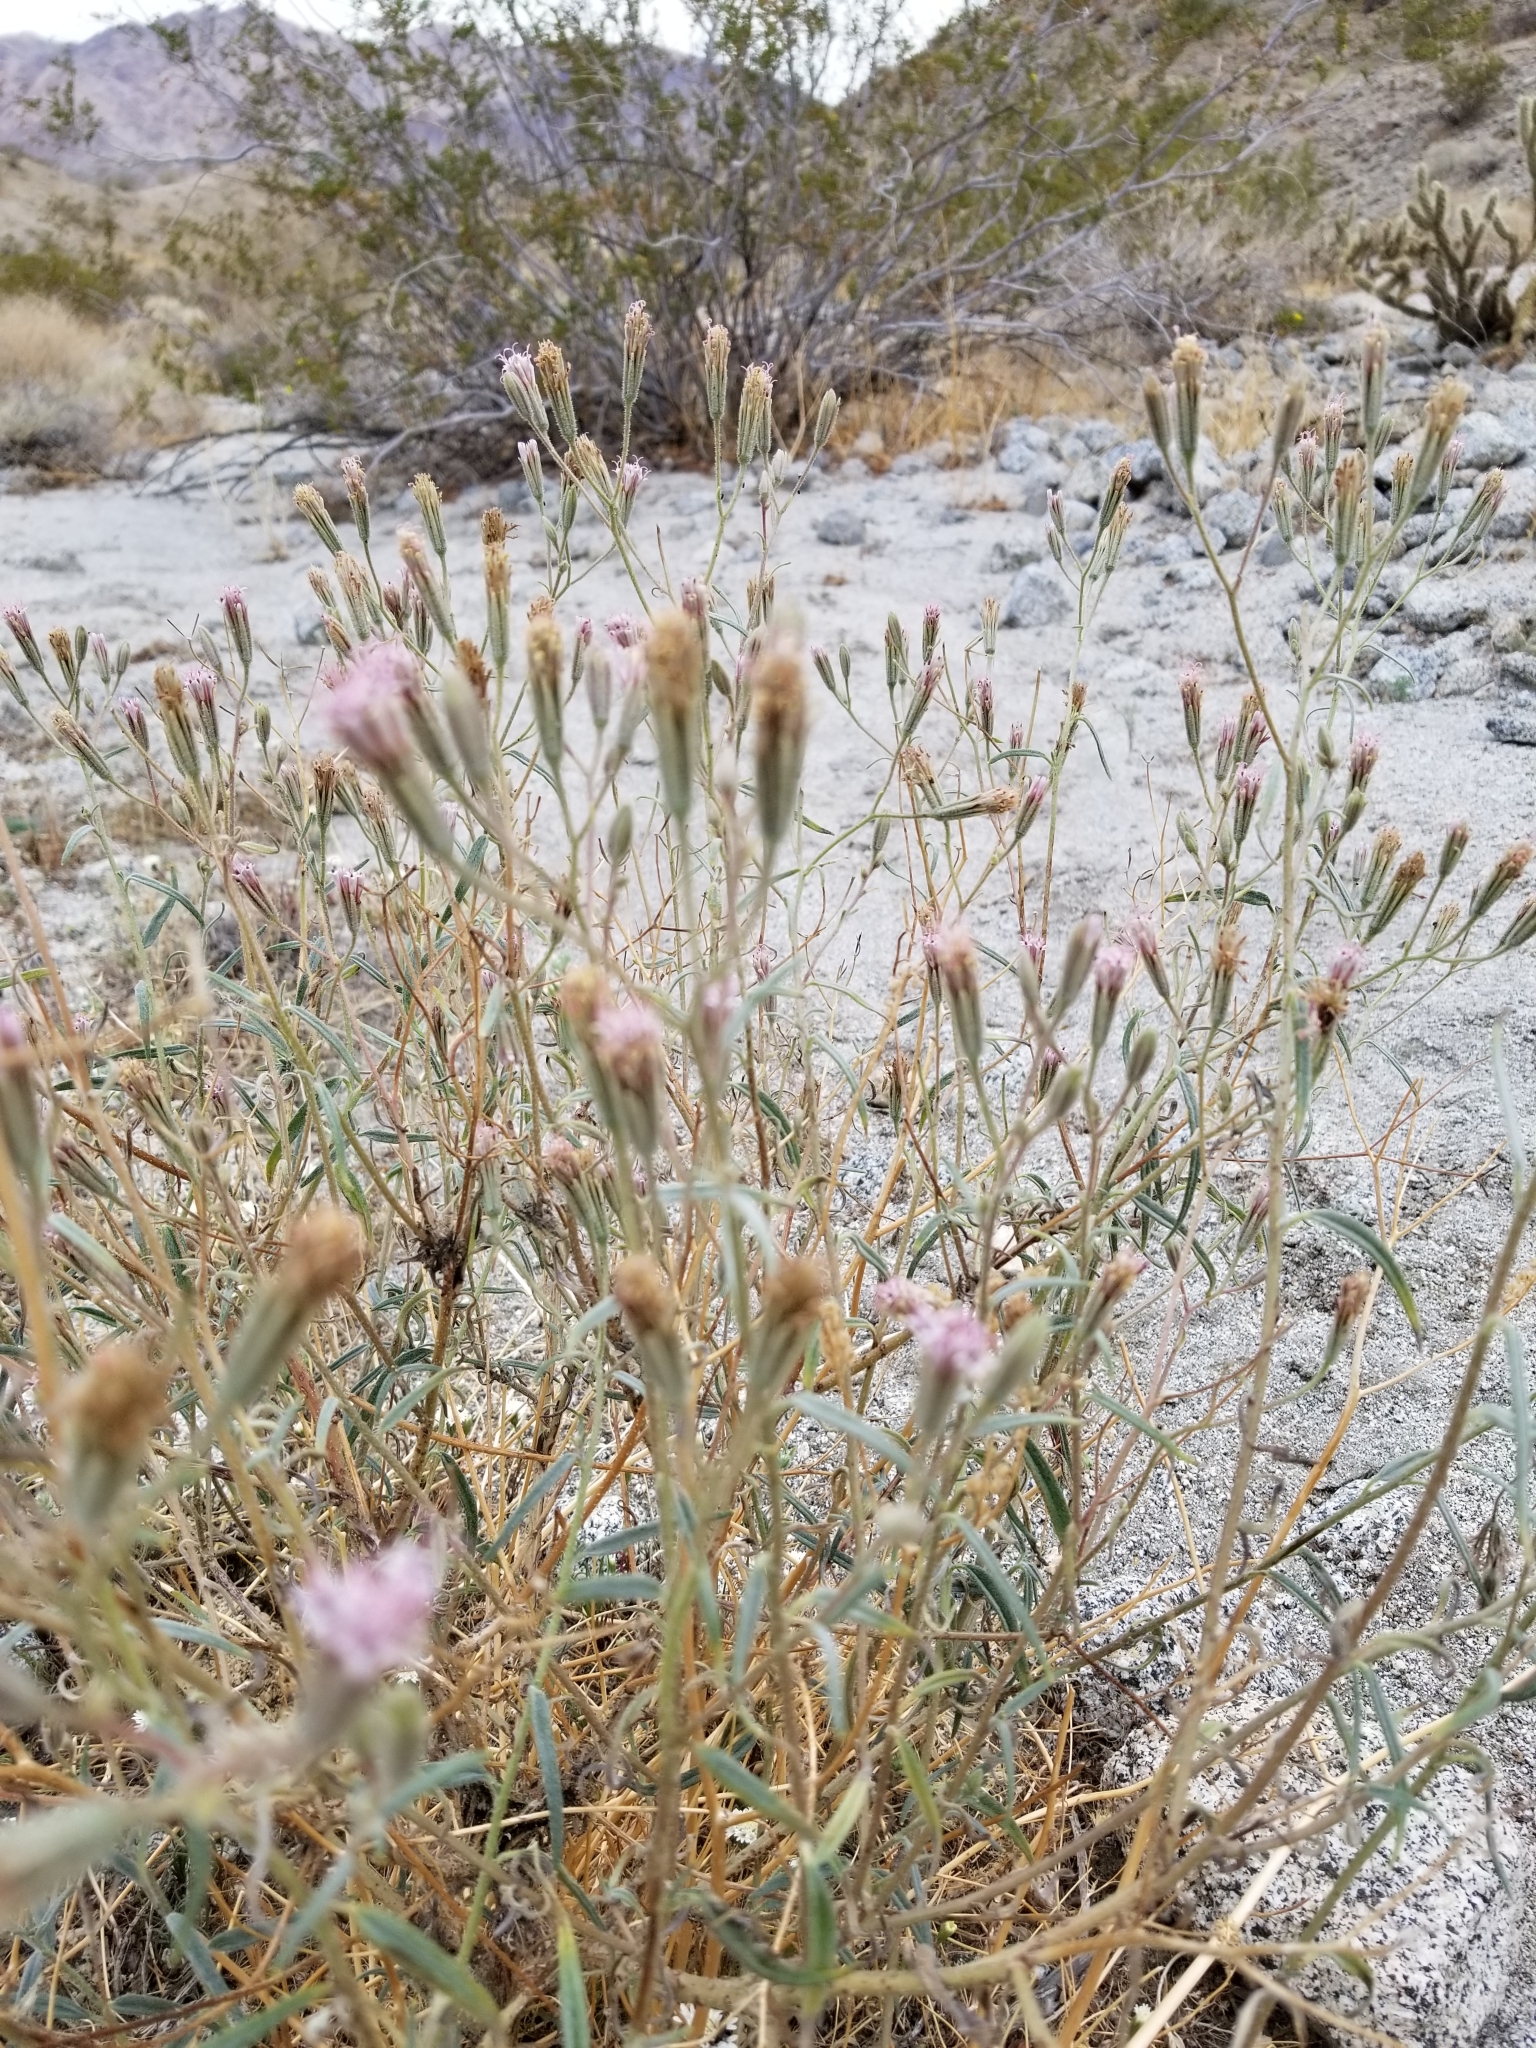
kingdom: Plantae
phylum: Tracheophyta
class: Magnoliopsida
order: Asterales
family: Asteraceae
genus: Palafoxia
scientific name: Palafoxia arida
